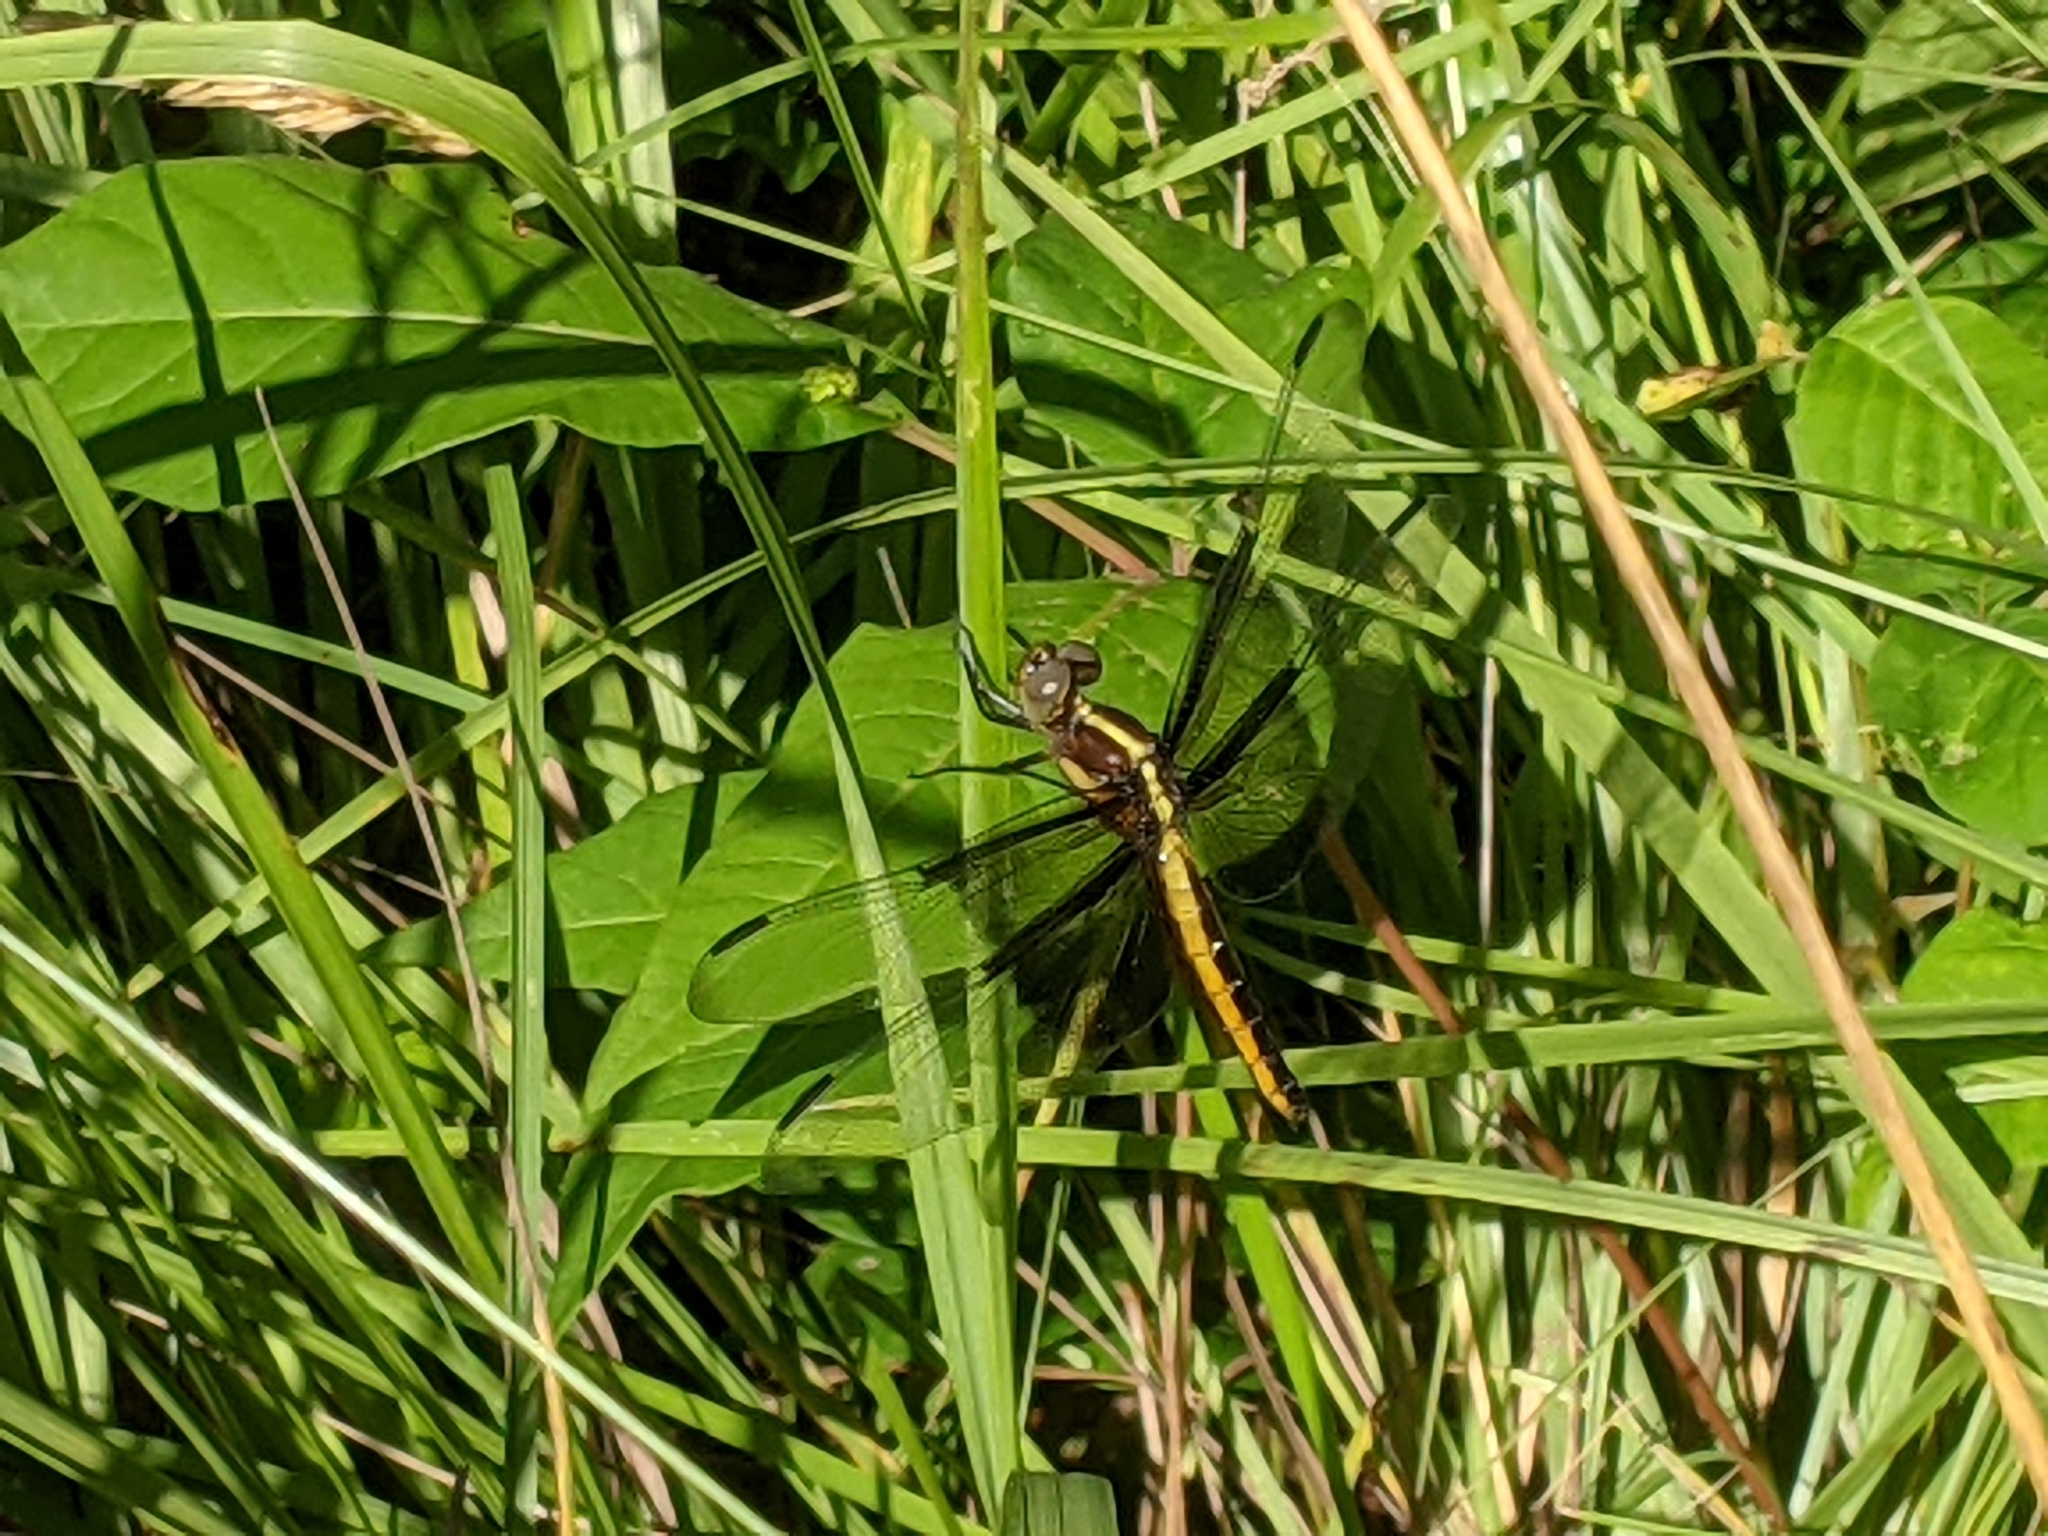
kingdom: Animalia
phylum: Arthropoda
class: Insecta
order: Odonata
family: Libellulidae
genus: Libellula
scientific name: Libellula luctuosa
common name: Widow skimmer
